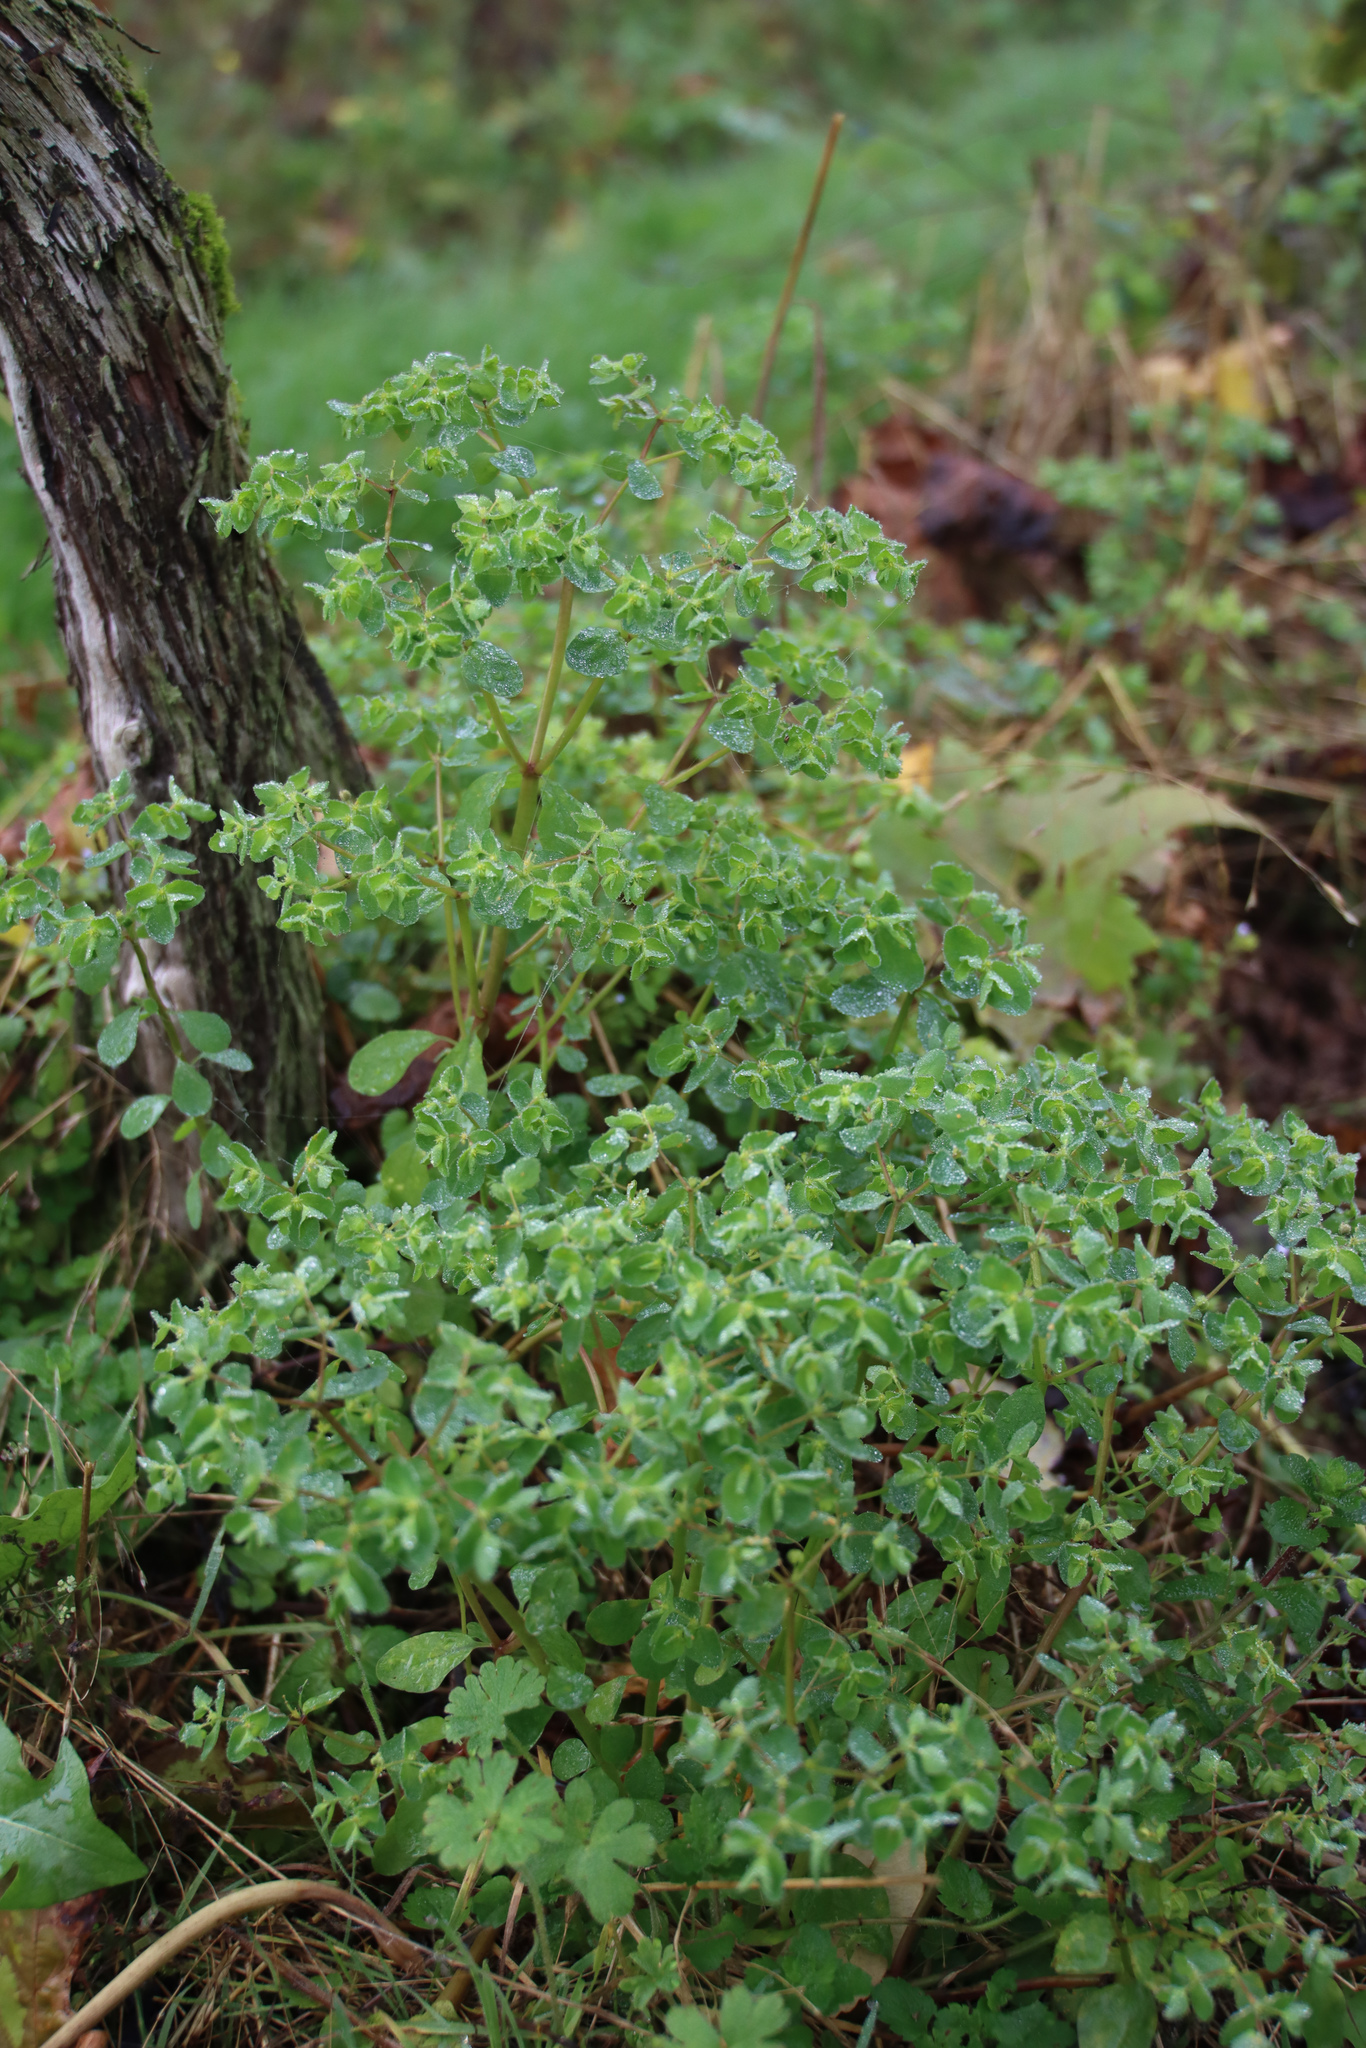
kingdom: Plantae
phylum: Tracheophyta
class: Magnoliopsida
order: Malpighiales
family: Euphorbiaceae
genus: Euphorbia
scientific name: Euphorbia peplus
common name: Petty spurge
